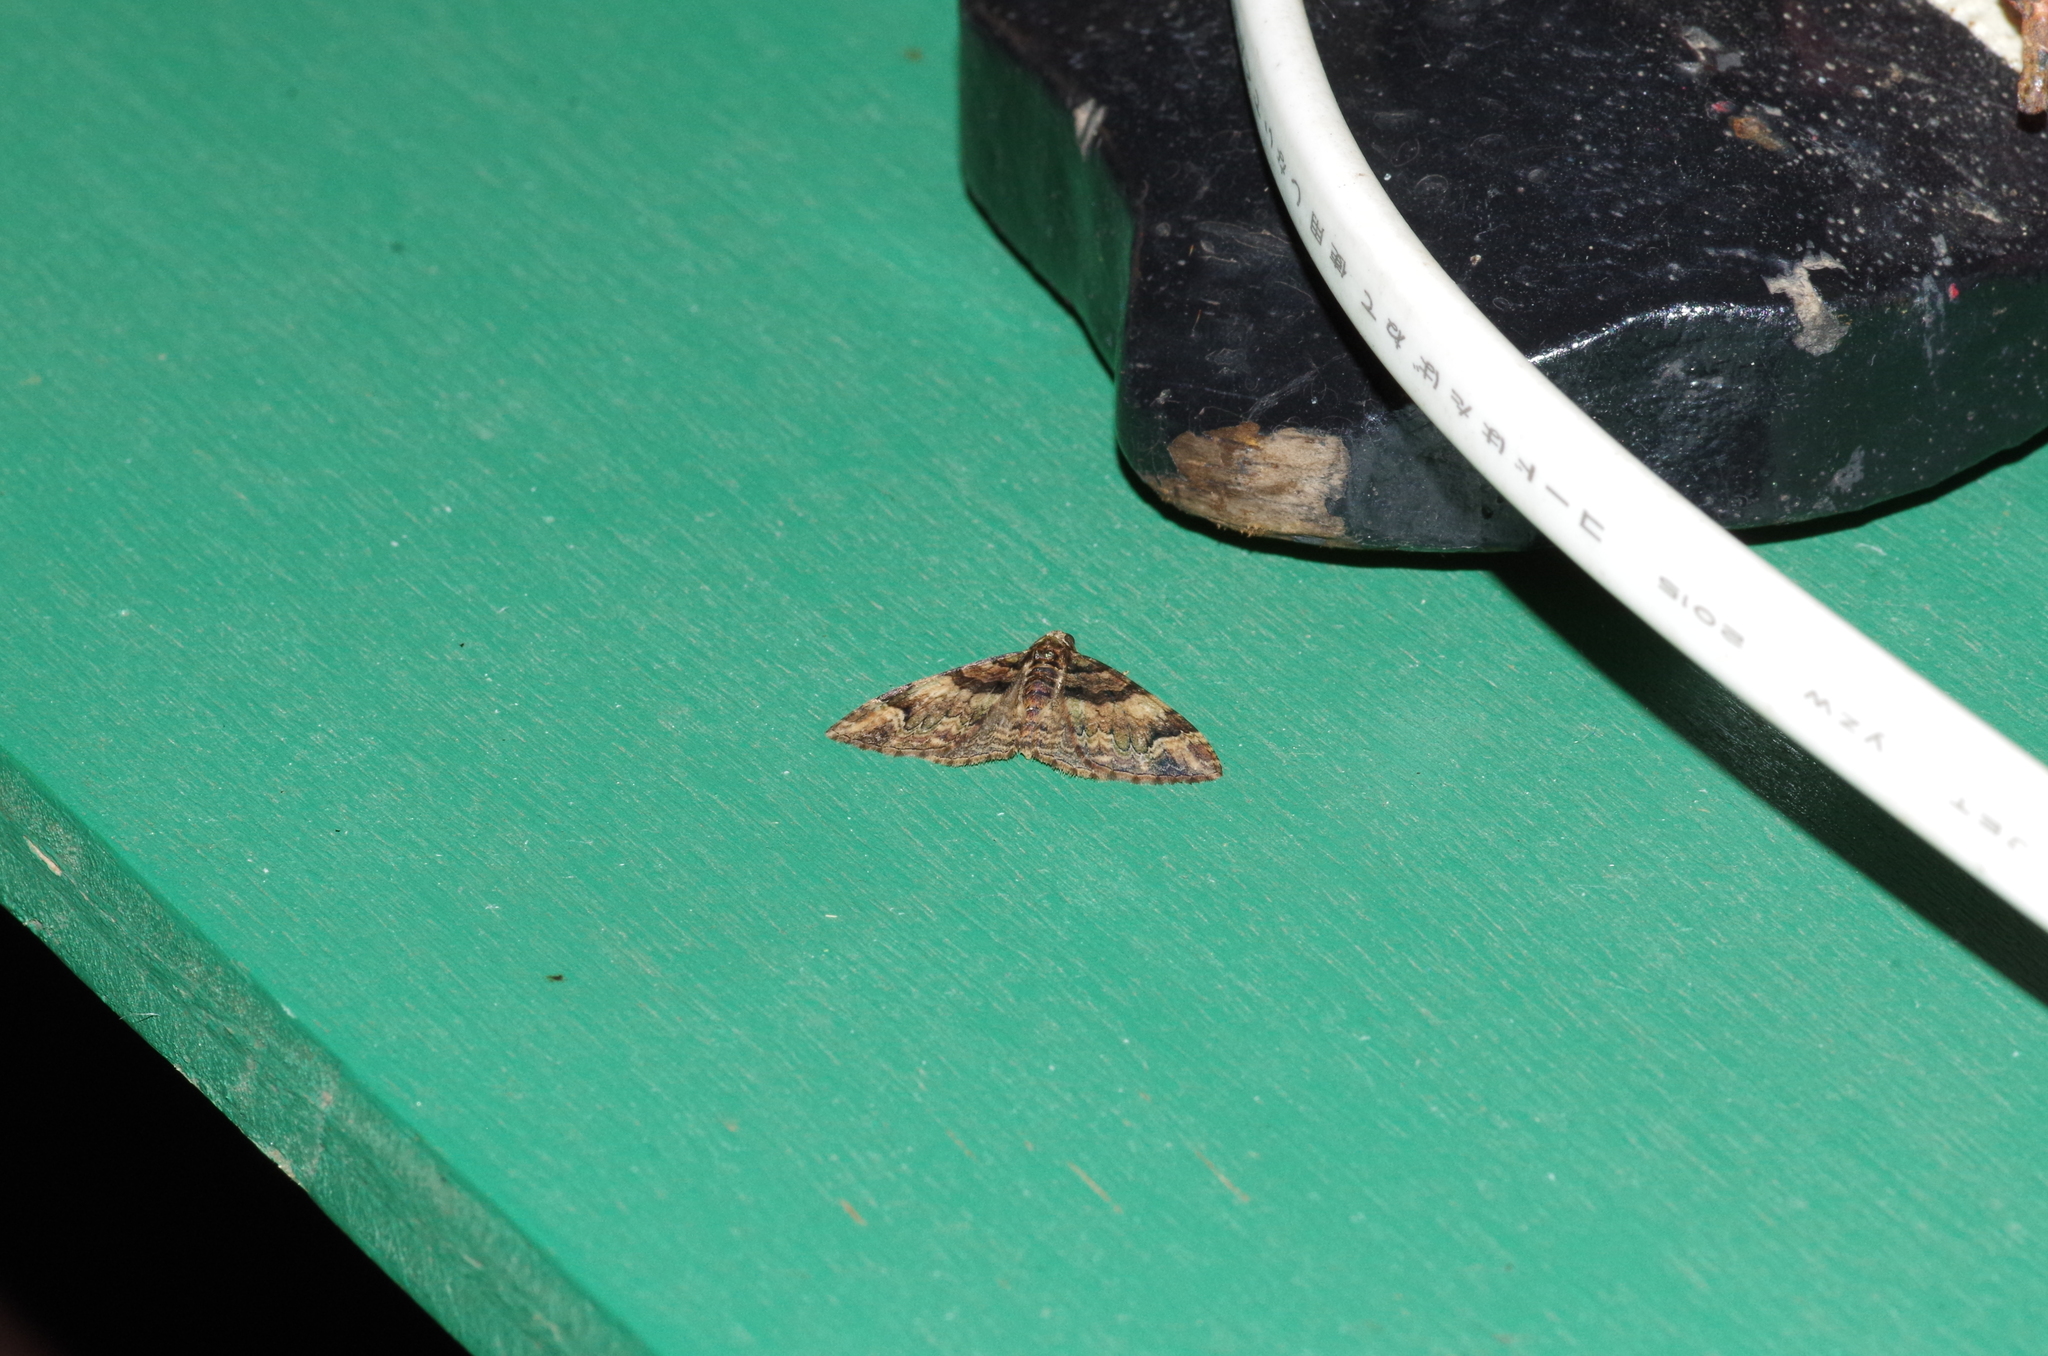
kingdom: Animalia
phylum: Arthropoda
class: Insecta
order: Lepidoptera
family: Geometridae
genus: Microcalcarifera
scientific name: Microcalcarifera obscura
